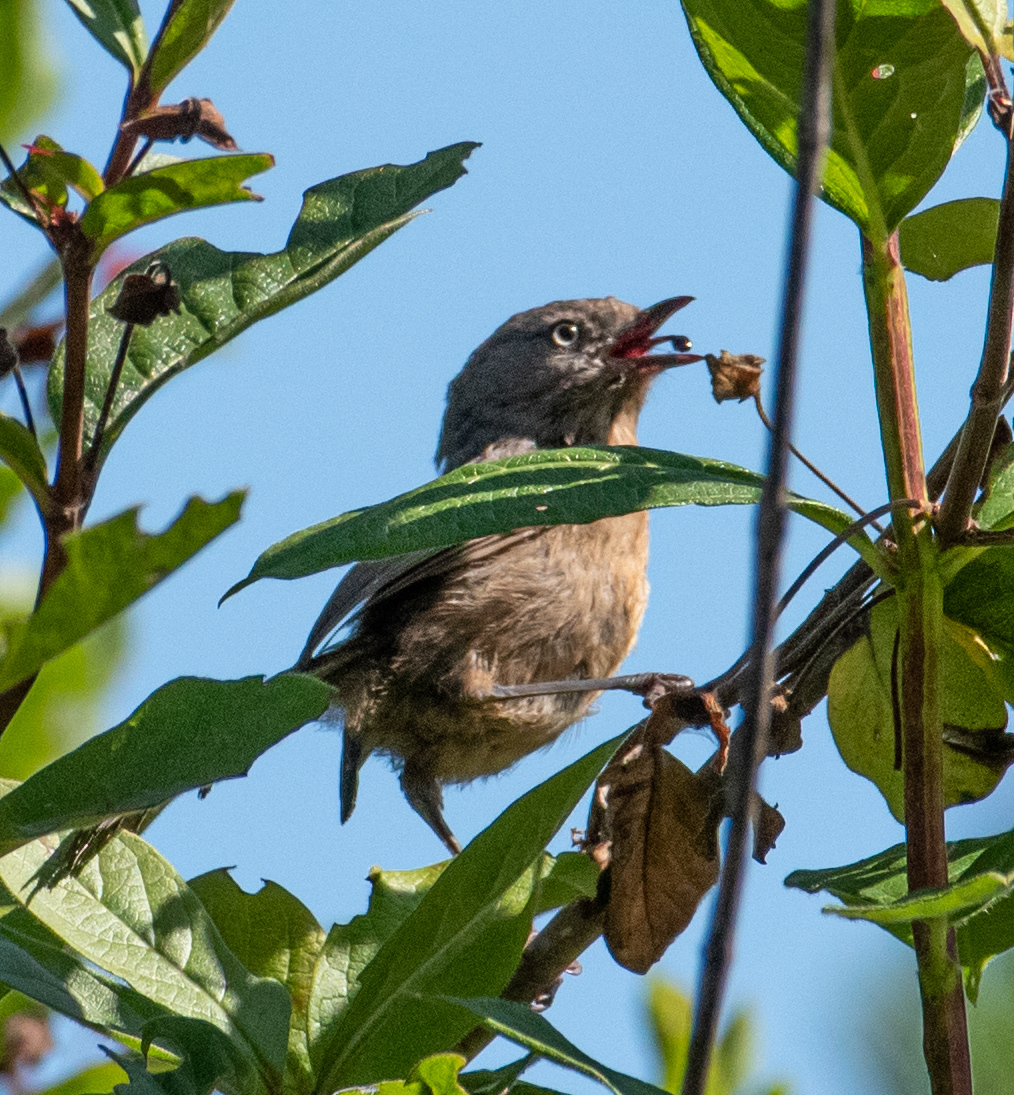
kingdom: Animalia
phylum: Chordata
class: Aves
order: Passeriformes
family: Sylviidae
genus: Chamaea
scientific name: Chamaea fasciata
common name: Wrentit
